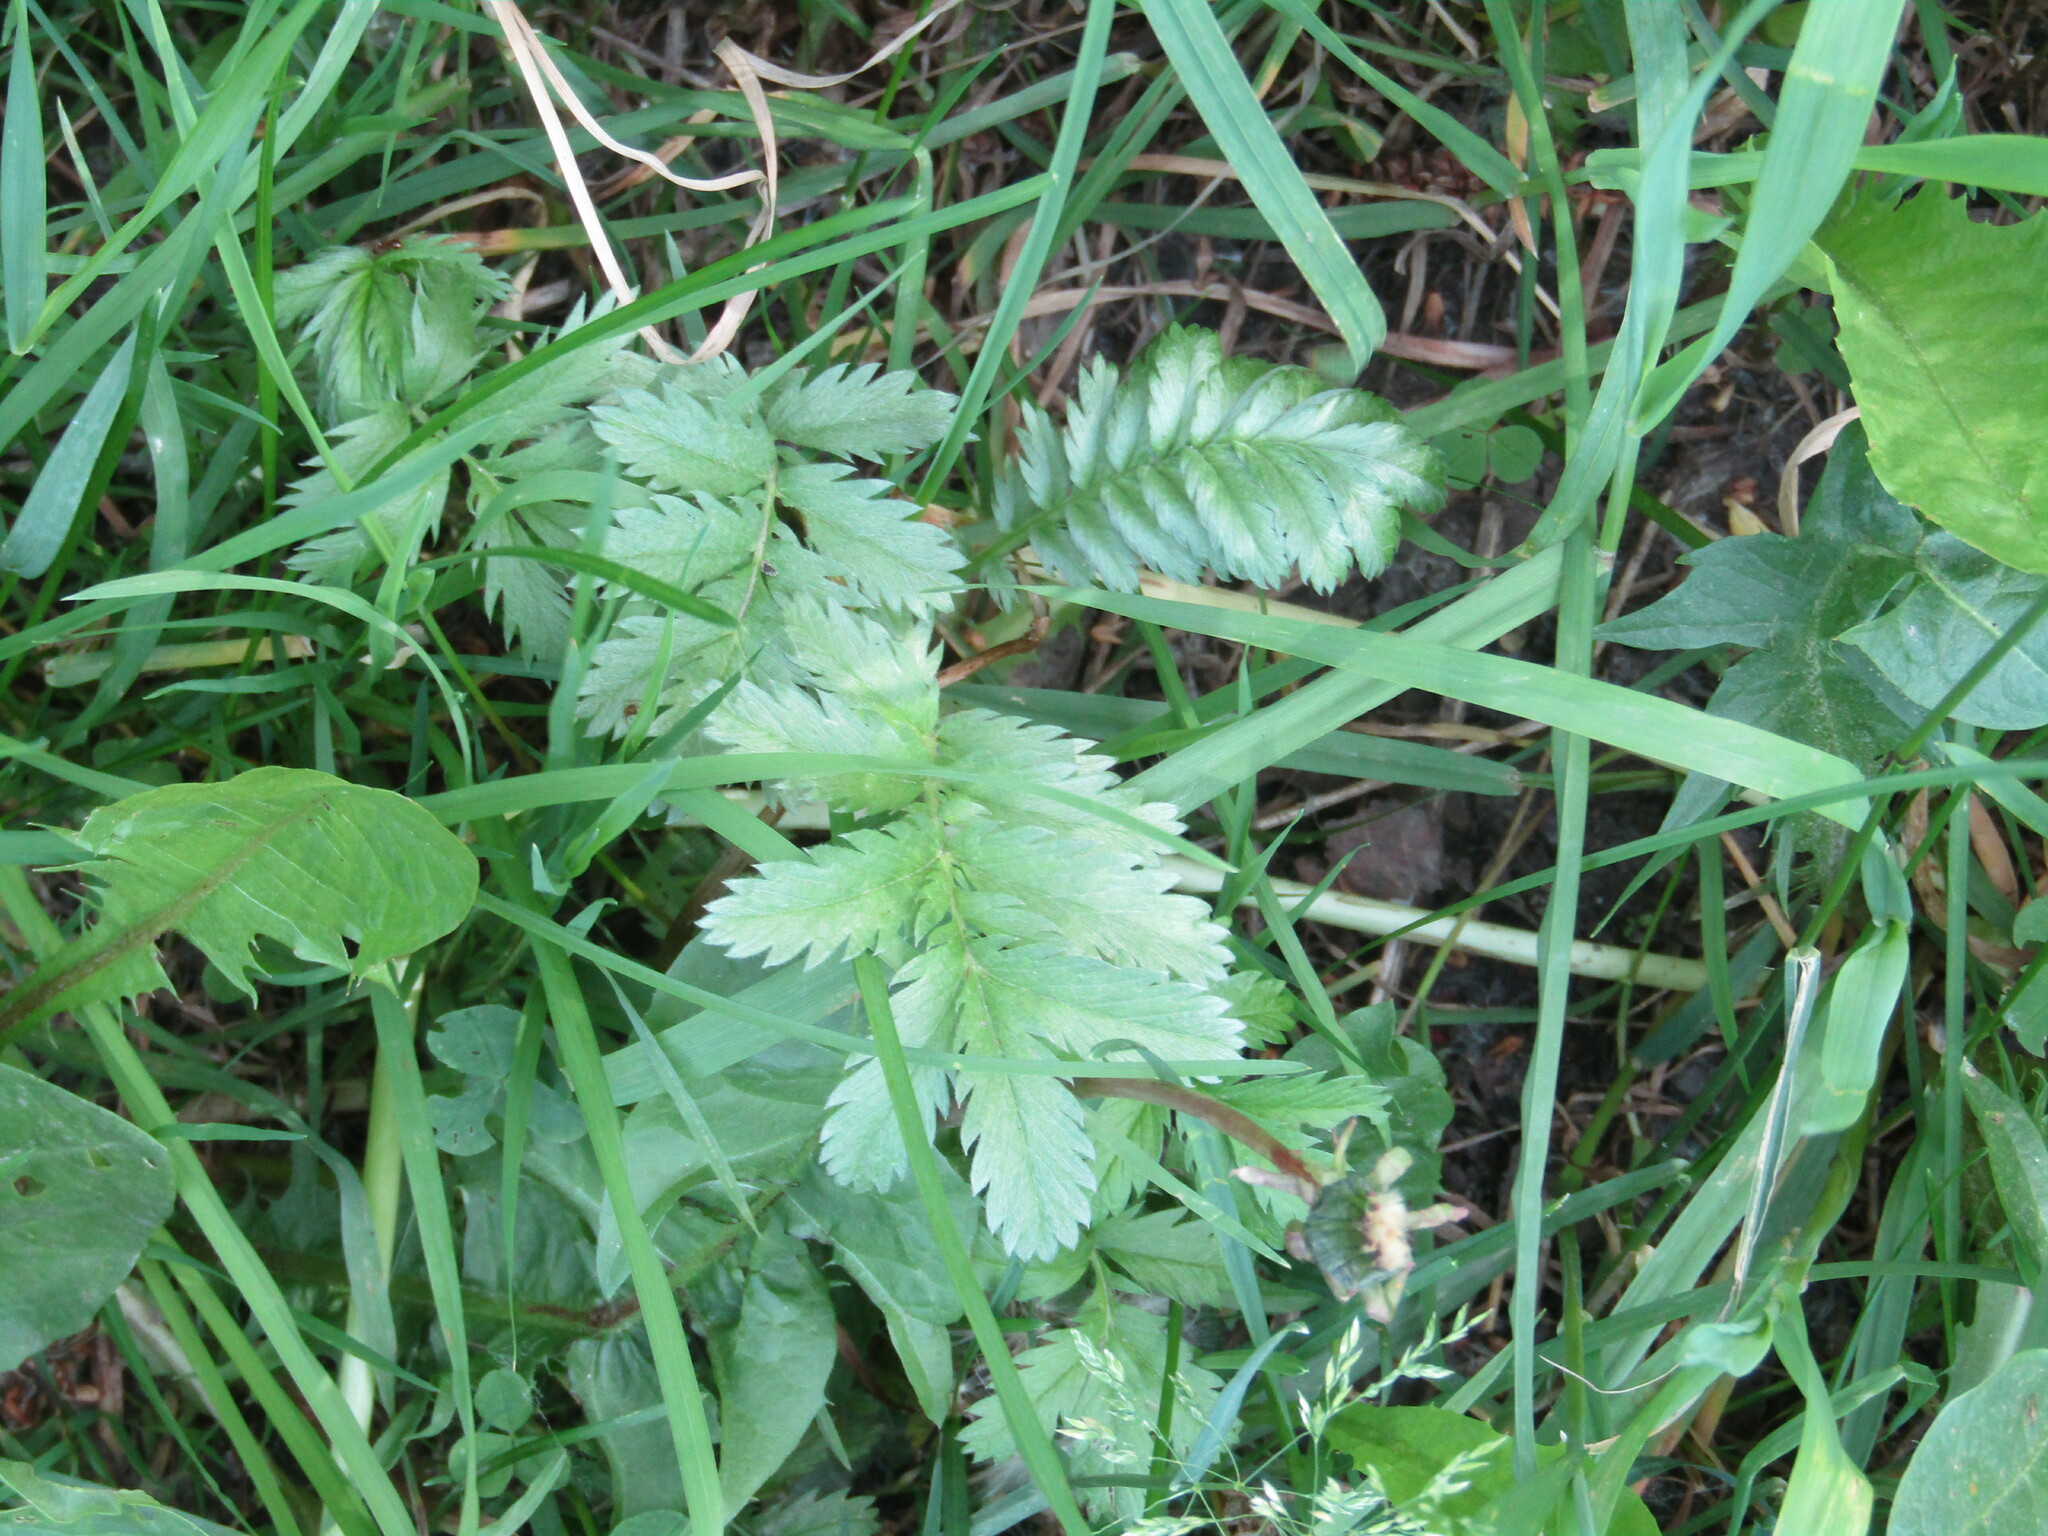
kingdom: Plantae
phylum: Tracheophyta
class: Magnoliopsida
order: Rosales
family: Rosaceae
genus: Argentina
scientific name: Argentina anserina
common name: Common silverweed
